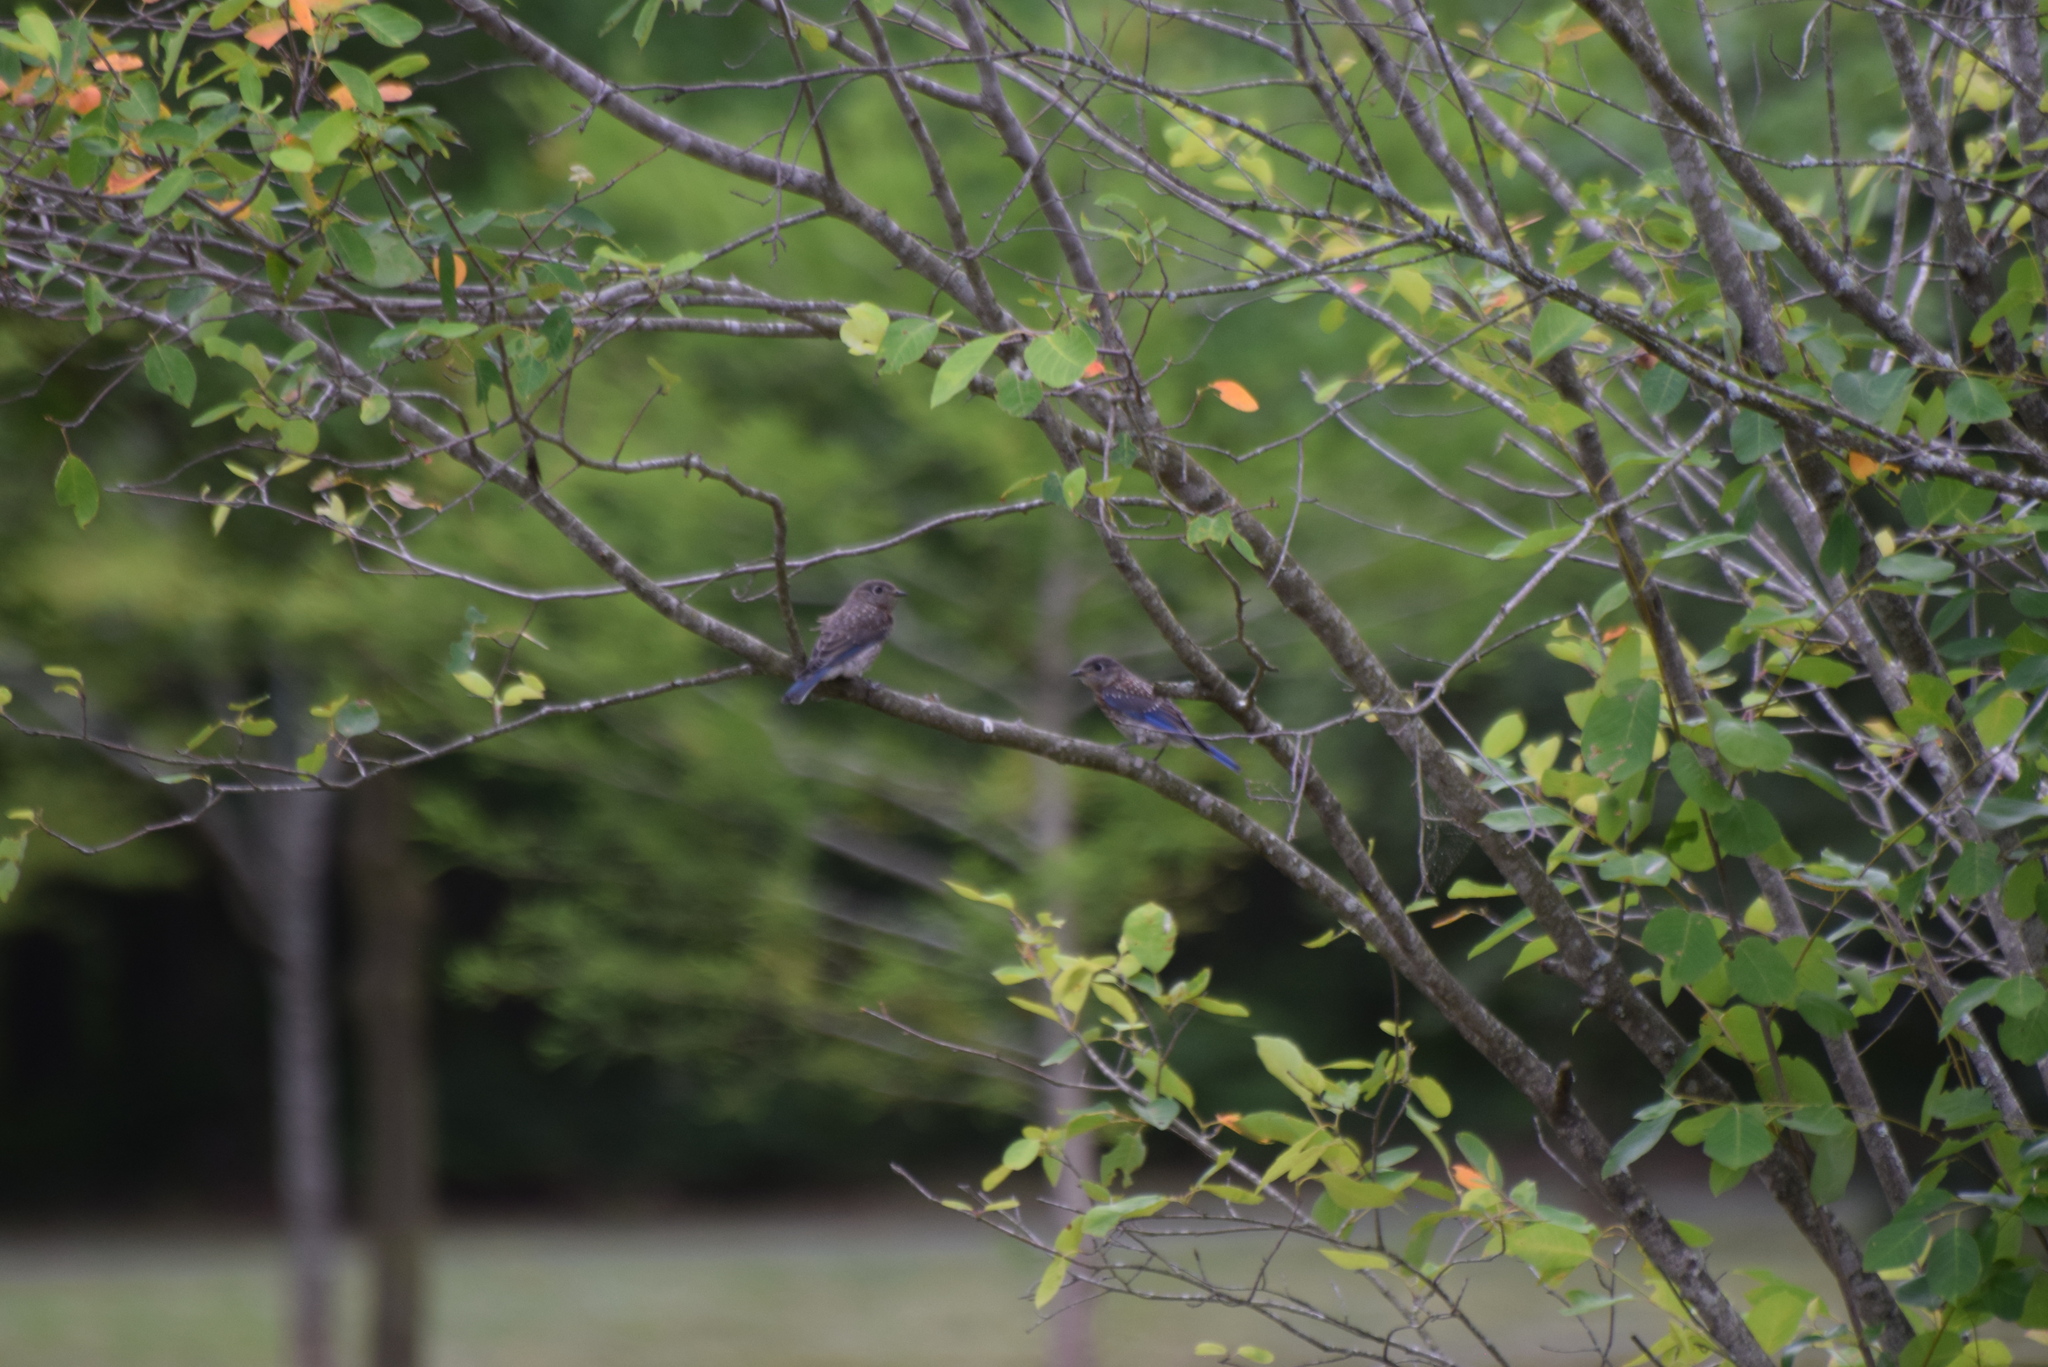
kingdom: Animalia
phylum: Chordata
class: Aves
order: Passeriformes
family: Turdidae
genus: Sialia
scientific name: Sialia sialis
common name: Eastern bluebird
